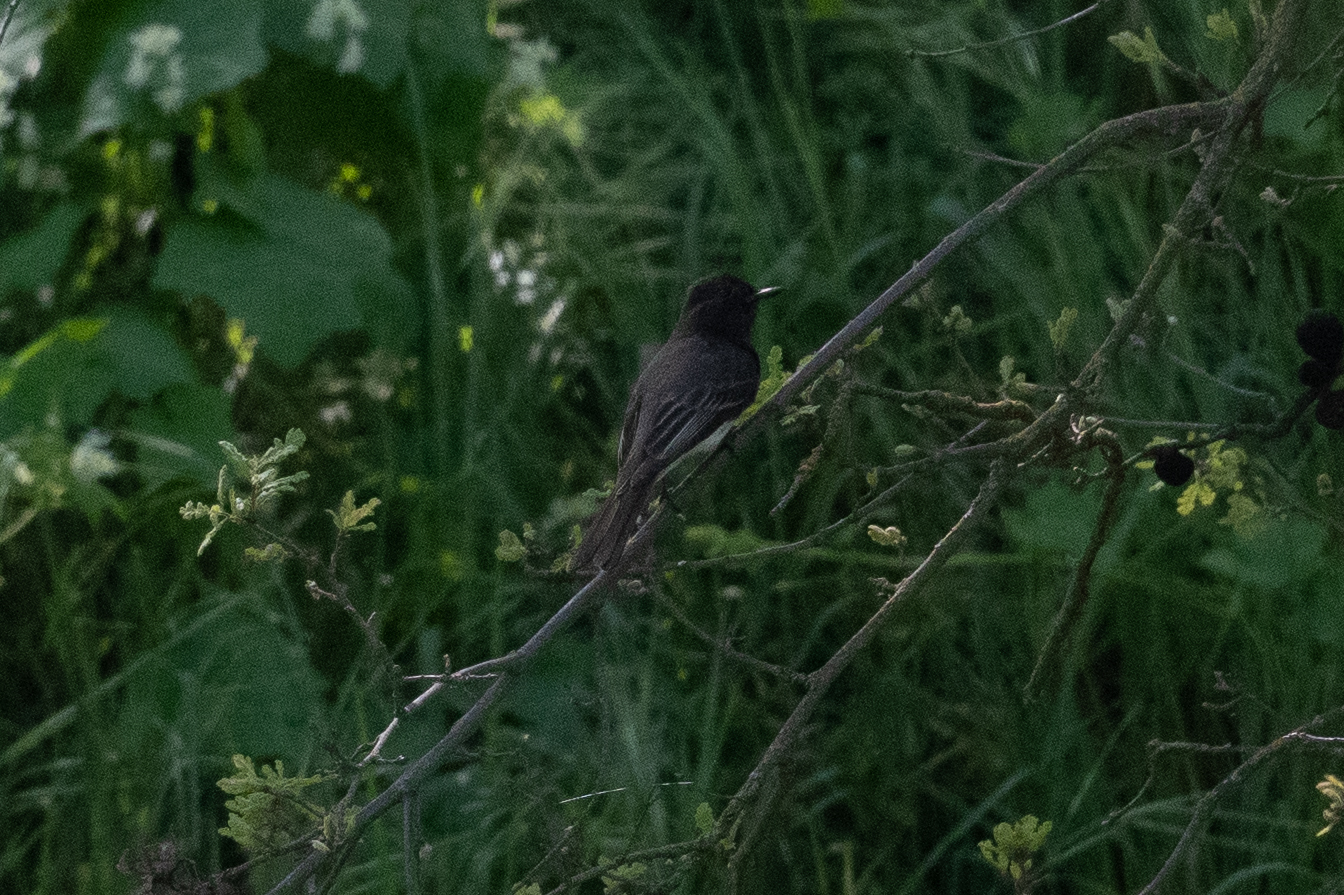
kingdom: Animalia
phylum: Chordata
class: Aves
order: Passeriformes
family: Tyrannidae
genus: Sayornis
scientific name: Sayornis nigricans
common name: Black phoebe
